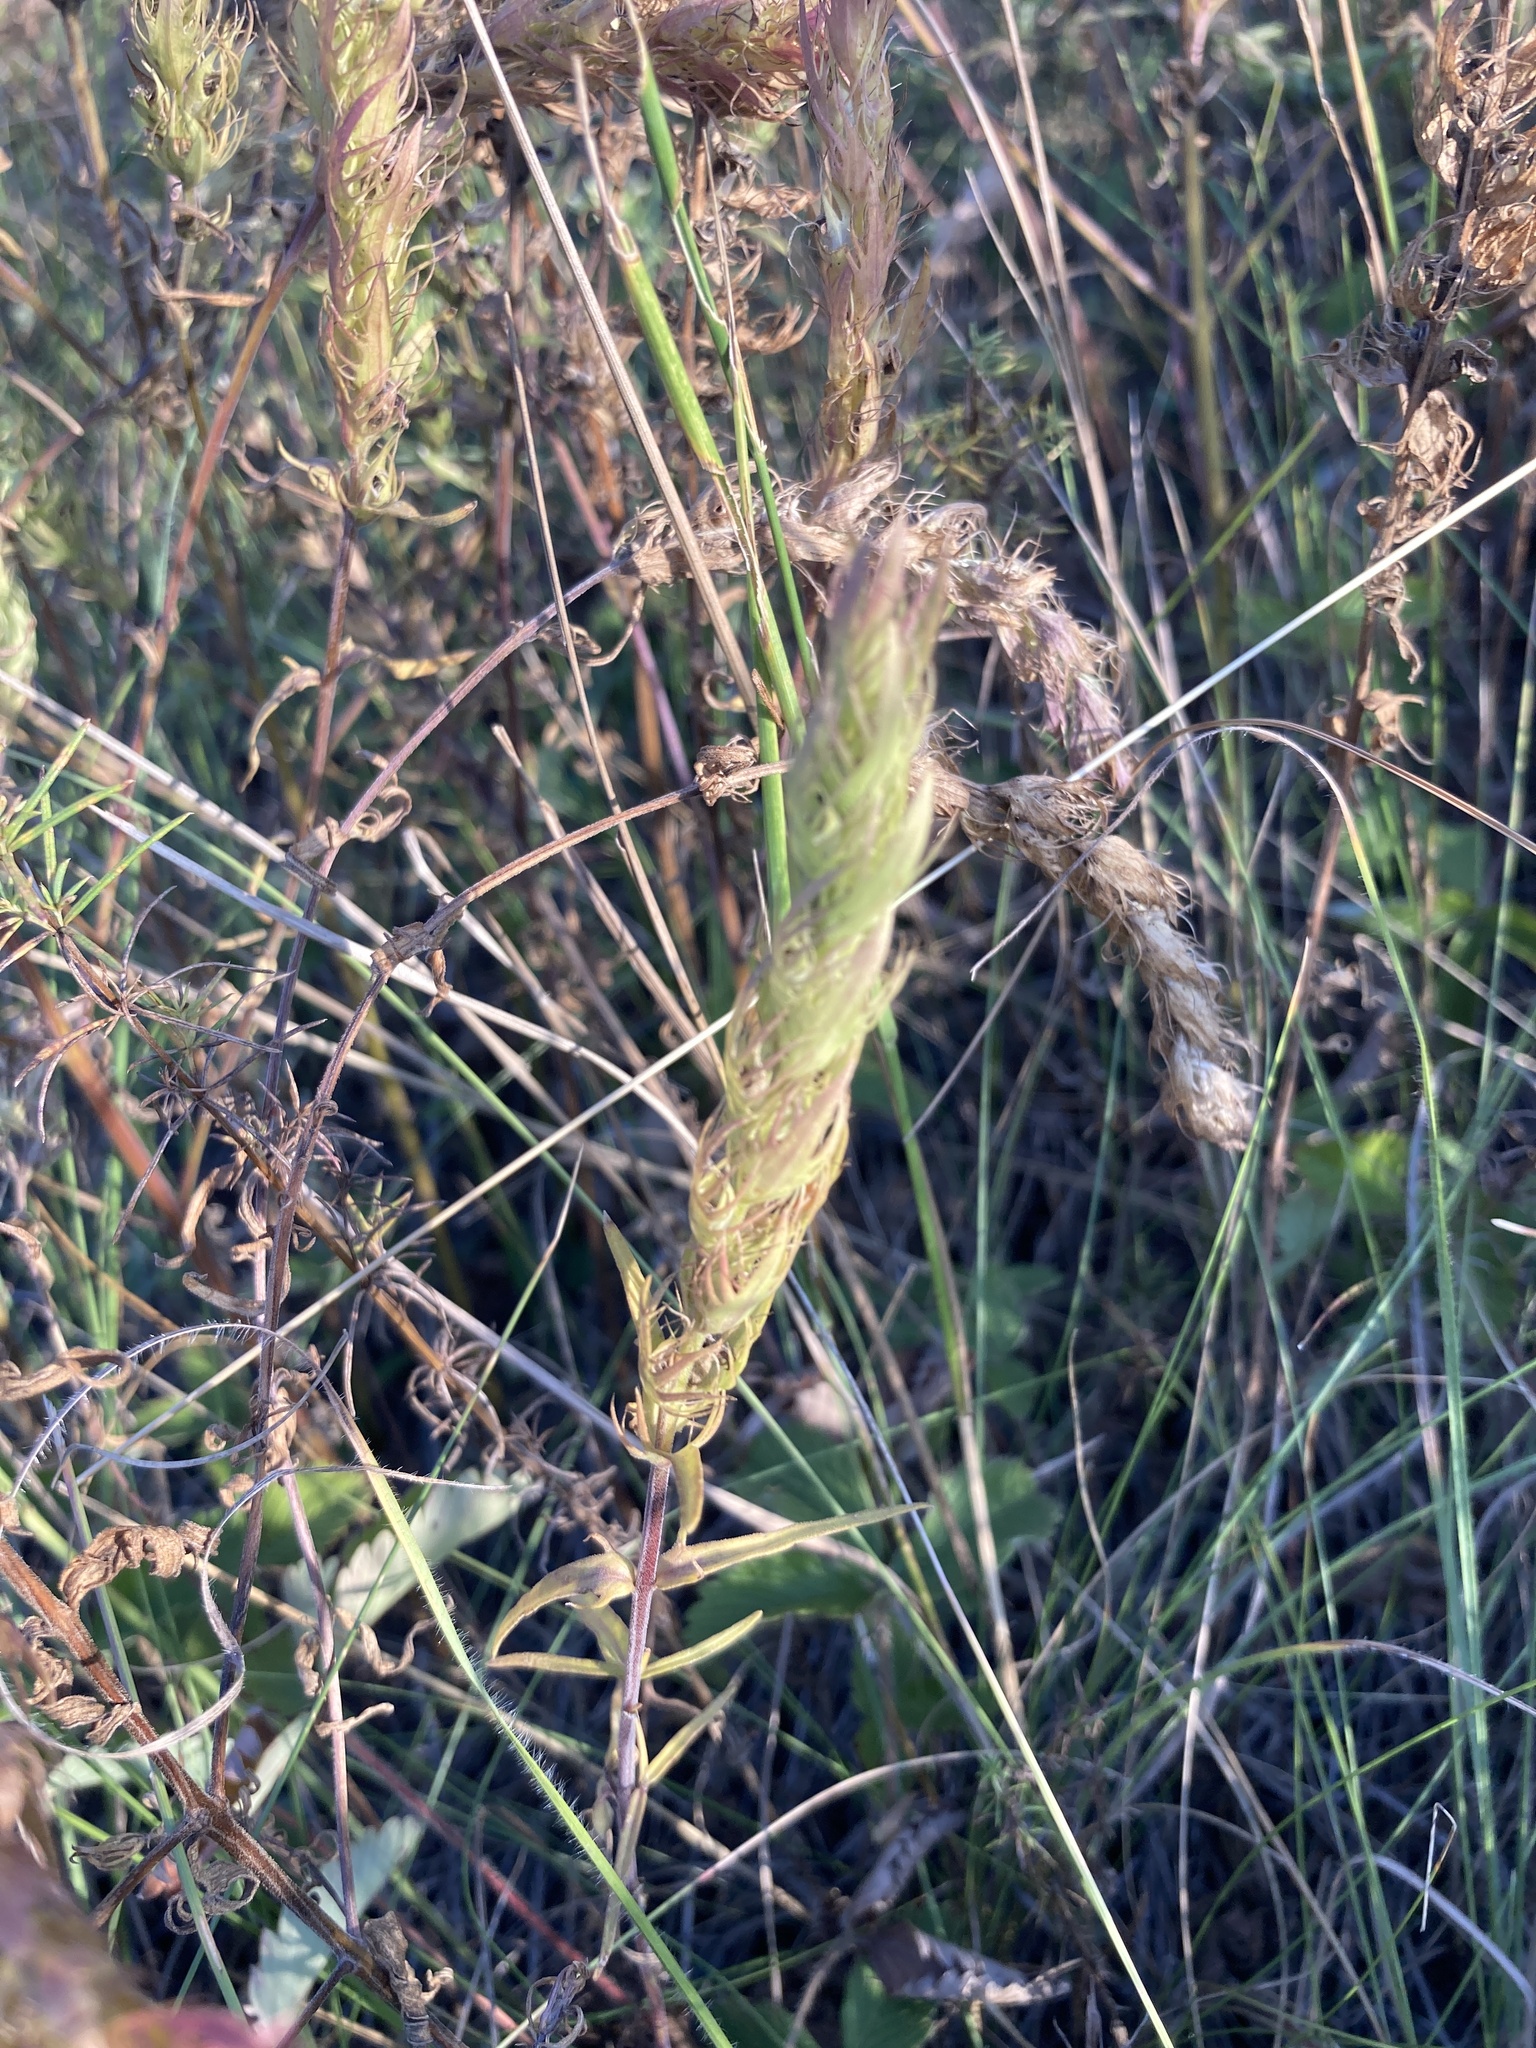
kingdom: Plantae
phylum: Tracheophyta
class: Magnoliopsida
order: Lamiales
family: Orobanchaceae
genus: Melampyrum
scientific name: Melampyrum arvense
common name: Field cow-wheat
